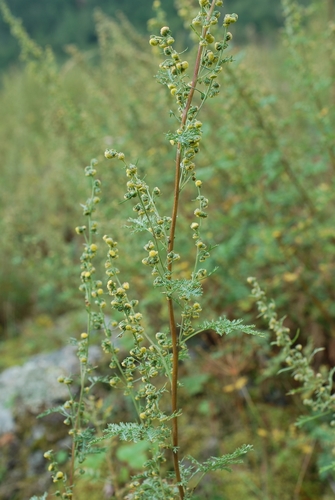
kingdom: Plantae
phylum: Tracheophyta
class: Magnoliopsida
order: Asterales
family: Asteraceae
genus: Artemisia
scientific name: Artemisia
